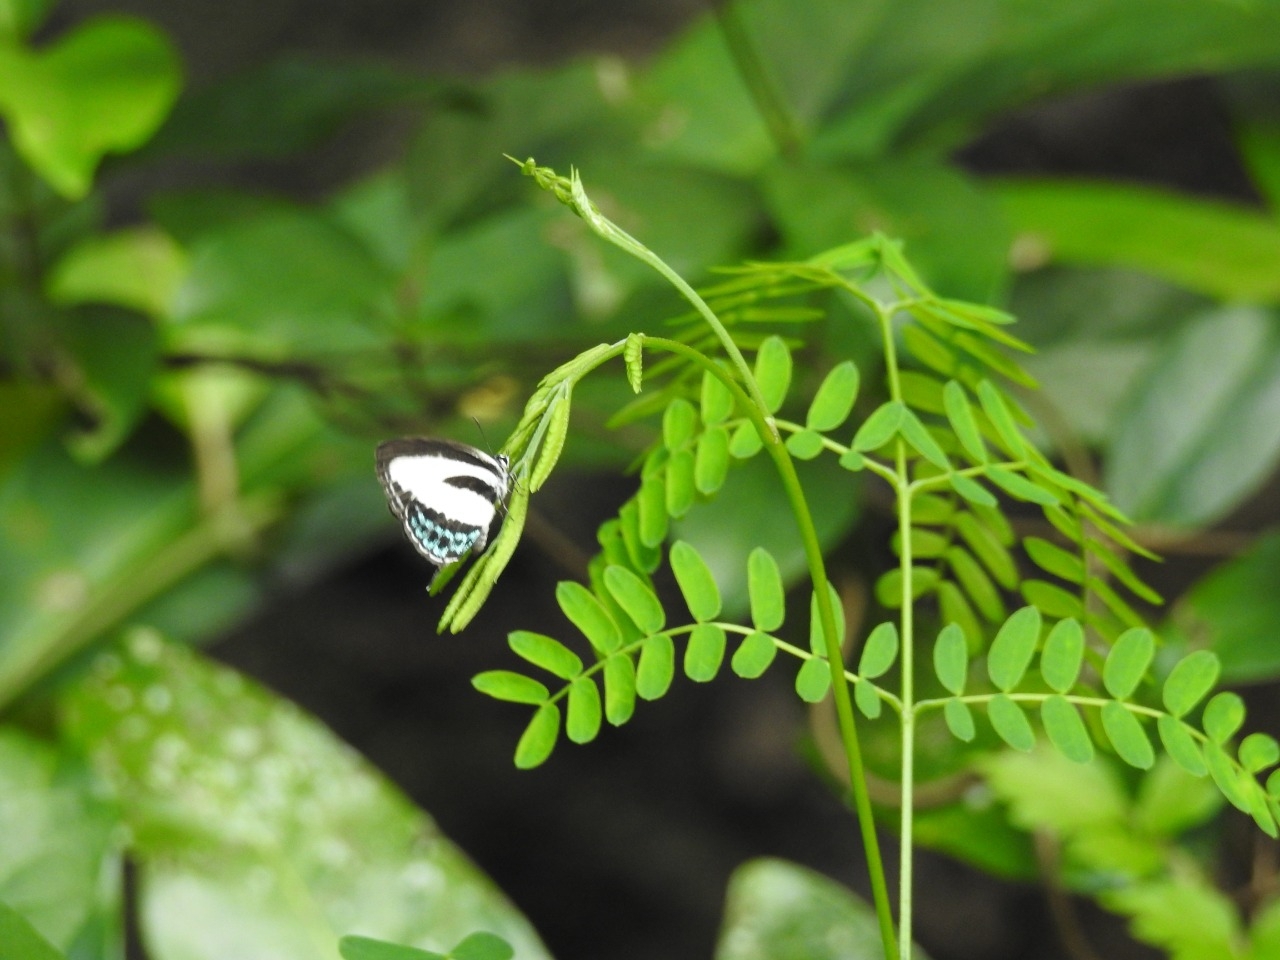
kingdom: Animalia
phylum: Arthropoda
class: Insecta
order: Lepidoptera
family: Lycaenidae
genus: Nacaduba
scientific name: Nacaduba cyanea
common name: Tailed green-banded line blue
